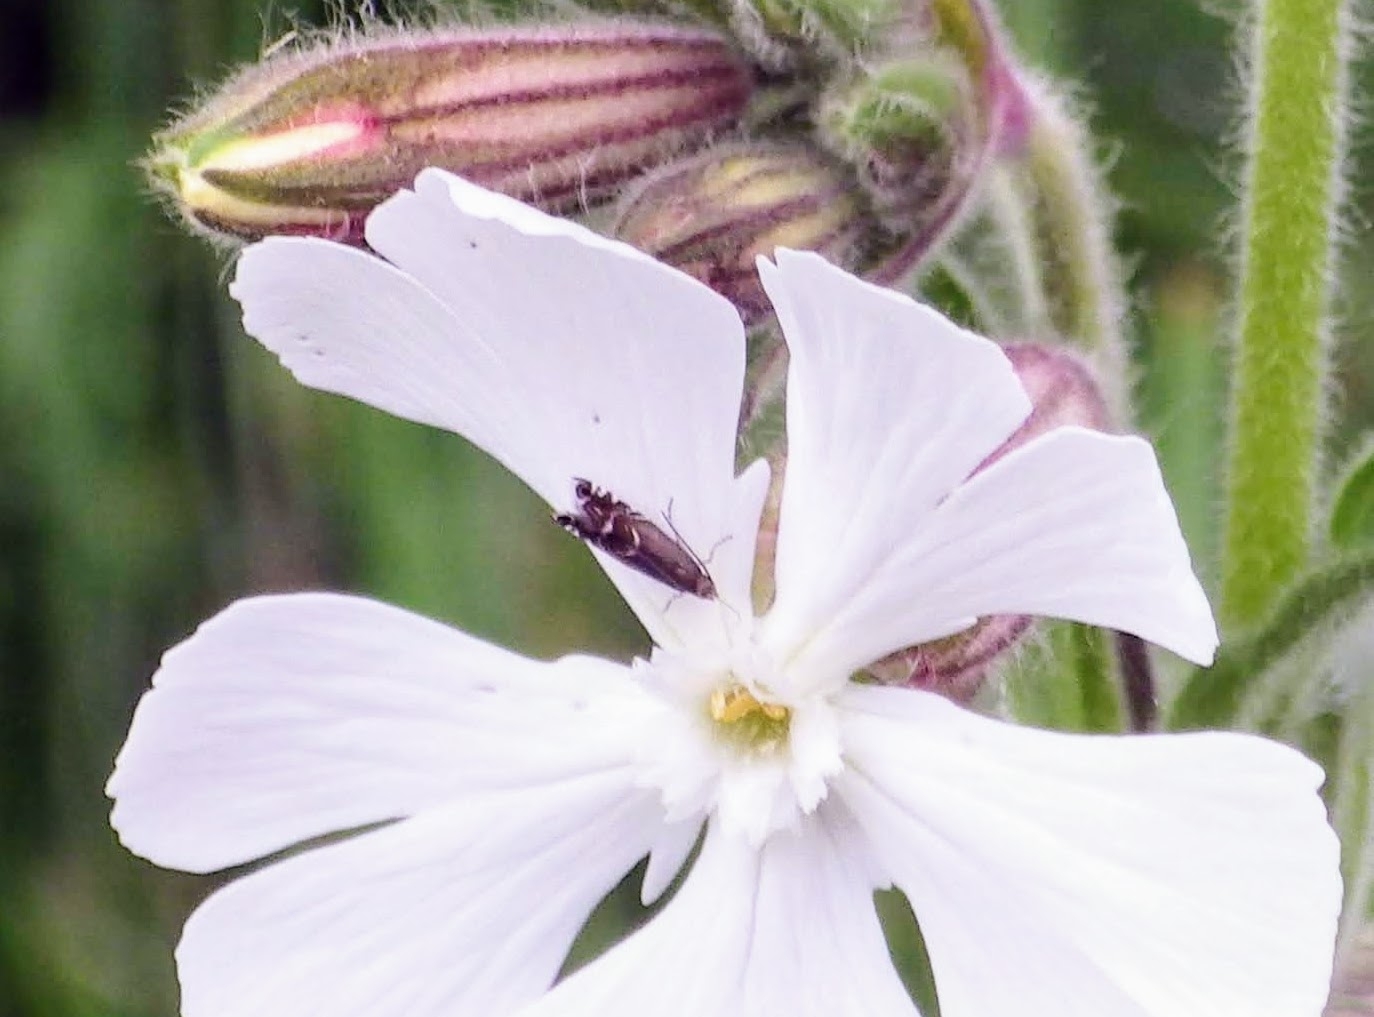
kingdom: Animalia
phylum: Arthropoda
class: Insecta
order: Lepidoptera
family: Glyphipterigidae
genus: Glyphipterix
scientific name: Glyphipterix simpliciella
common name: Cocksfoot moth
